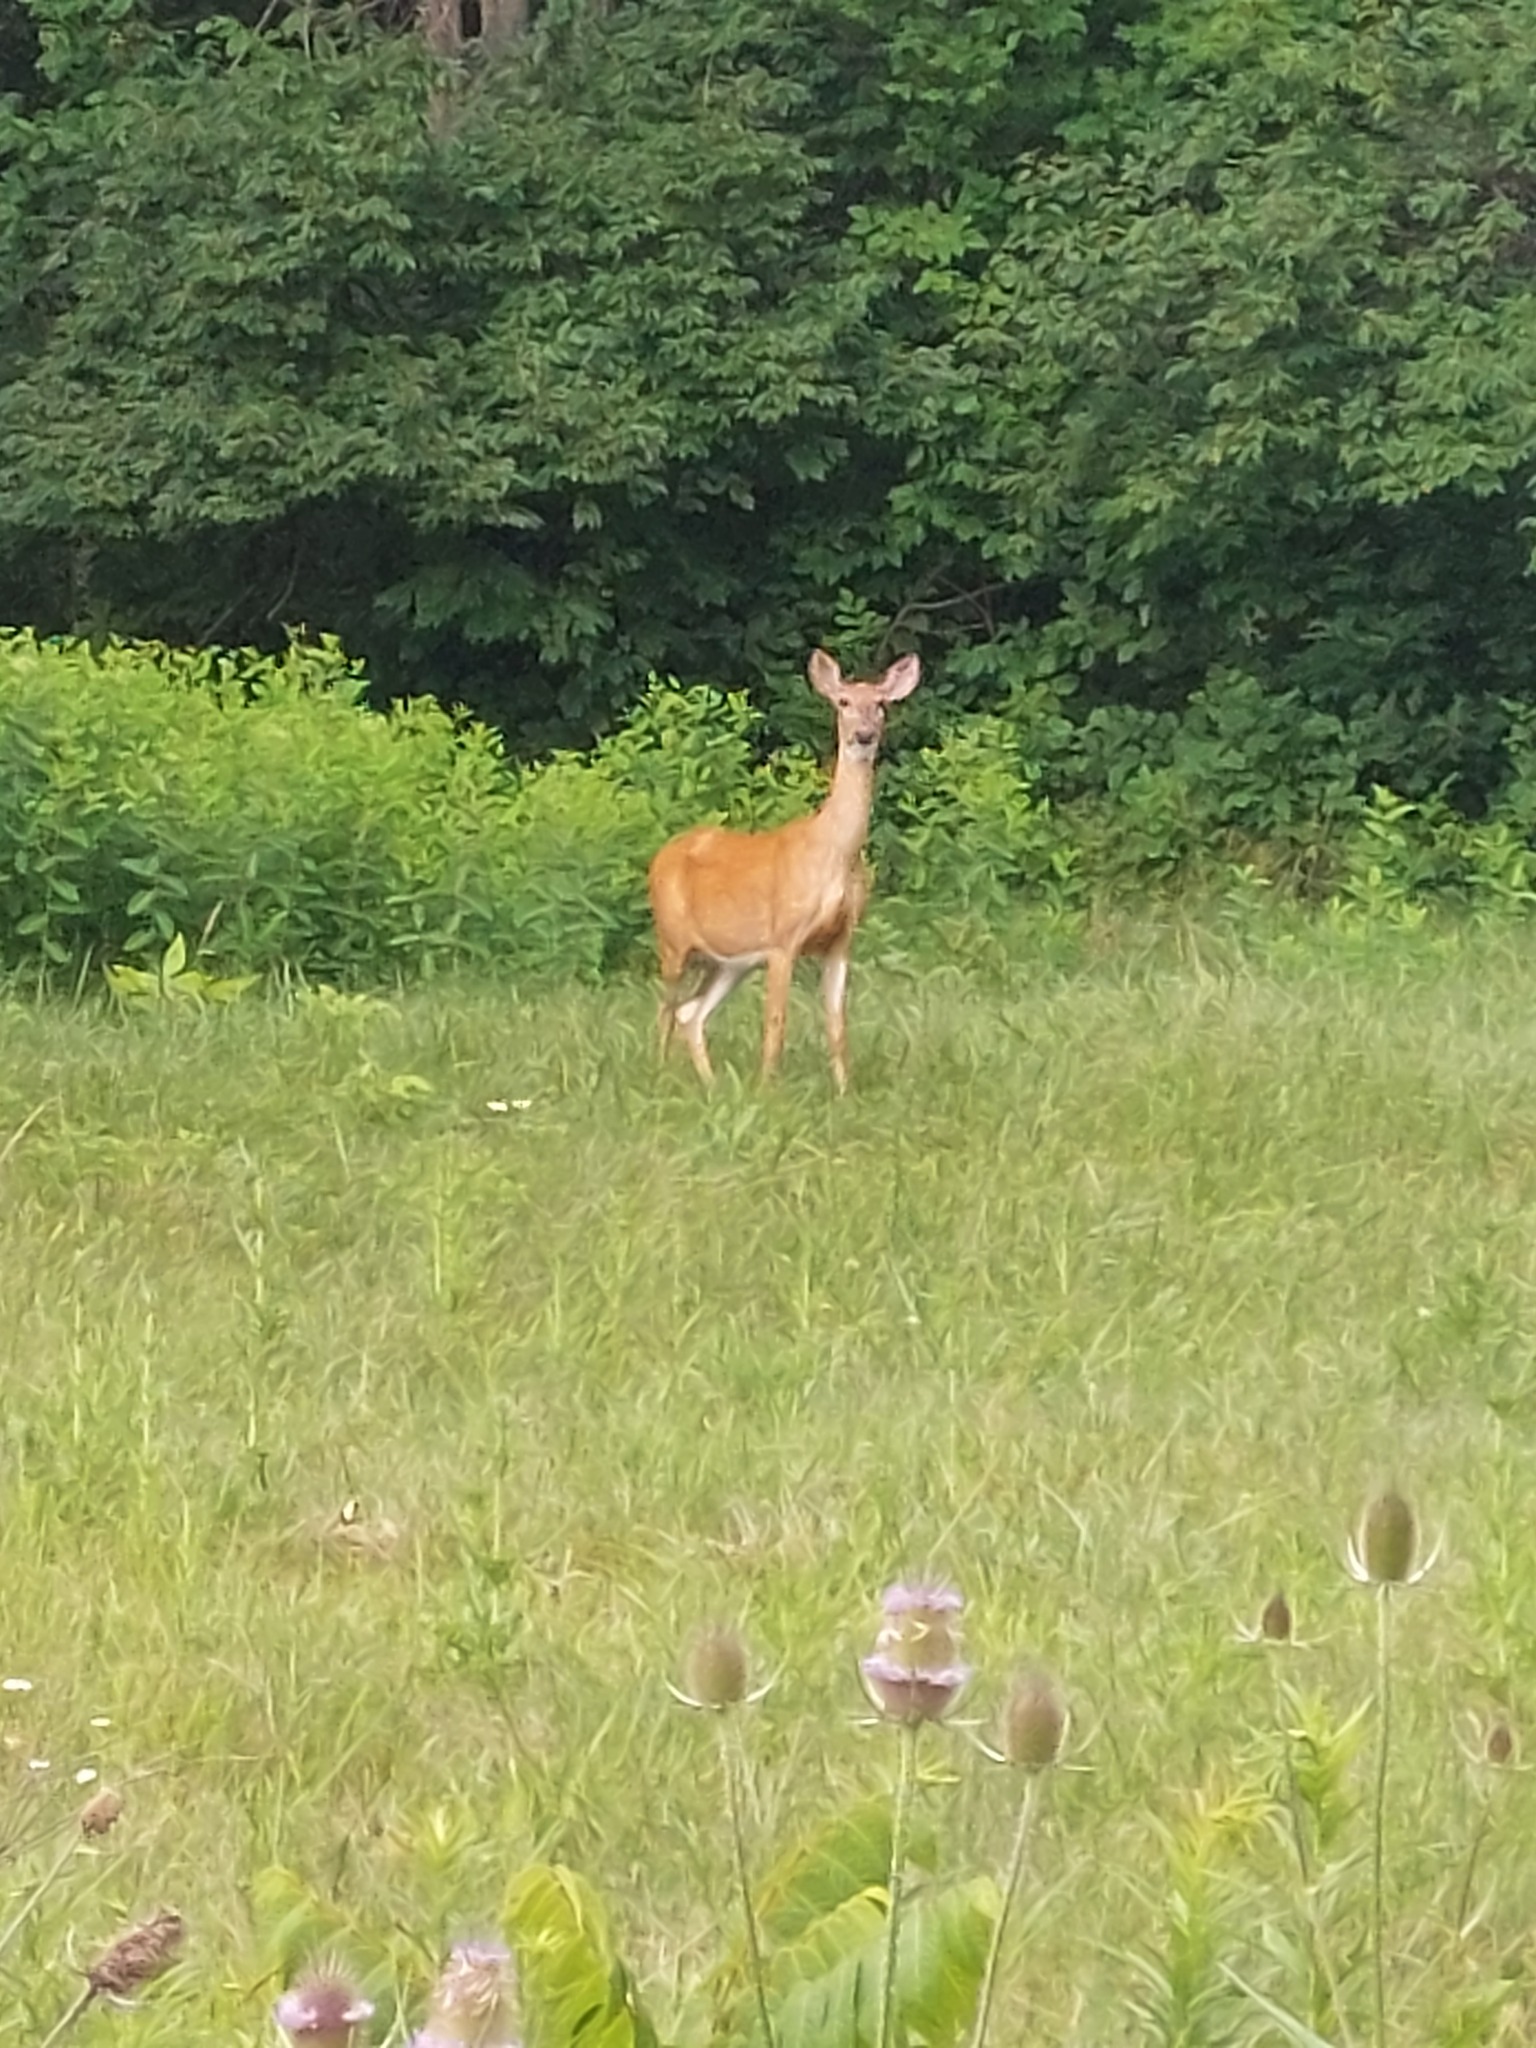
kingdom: Animalia
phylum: Chordata
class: Mammalia
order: Artiodactyla
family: Cervidae
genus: Odocoileus
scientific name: Odocoileus virginianus
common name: White-tailed deer
